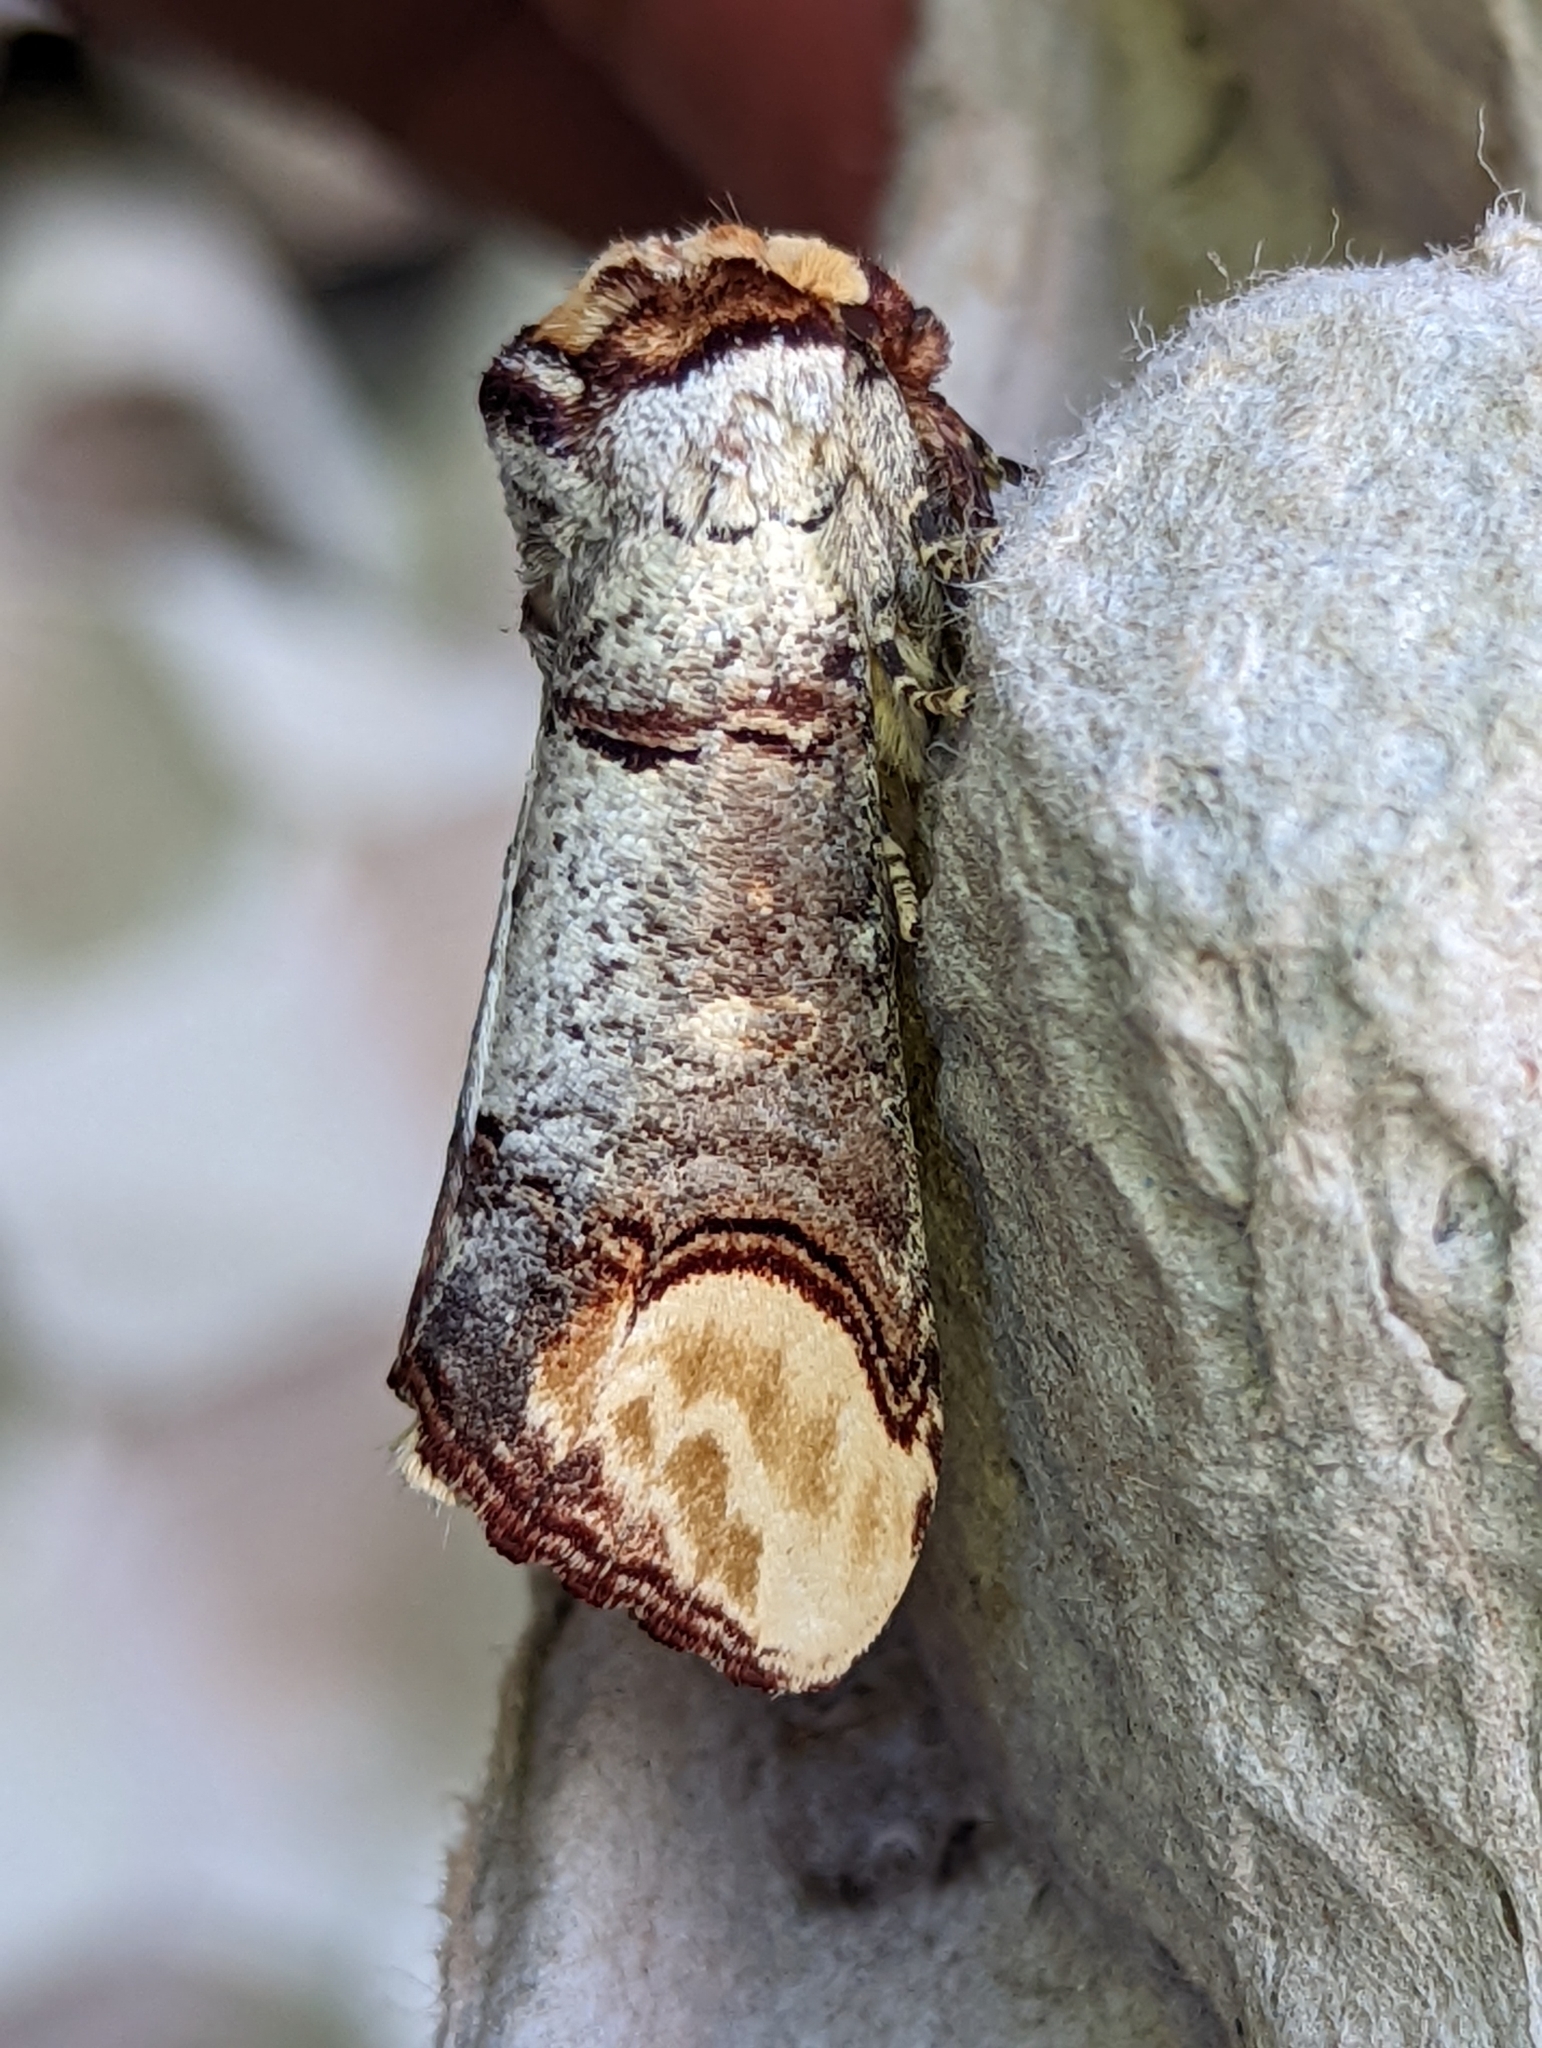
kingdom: Animalia
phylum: Arthropoda
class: Insecta
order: Lepidoptera
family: Notodontidae
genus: Phalera
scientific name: Phalera bucephala
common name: Buff-tip
